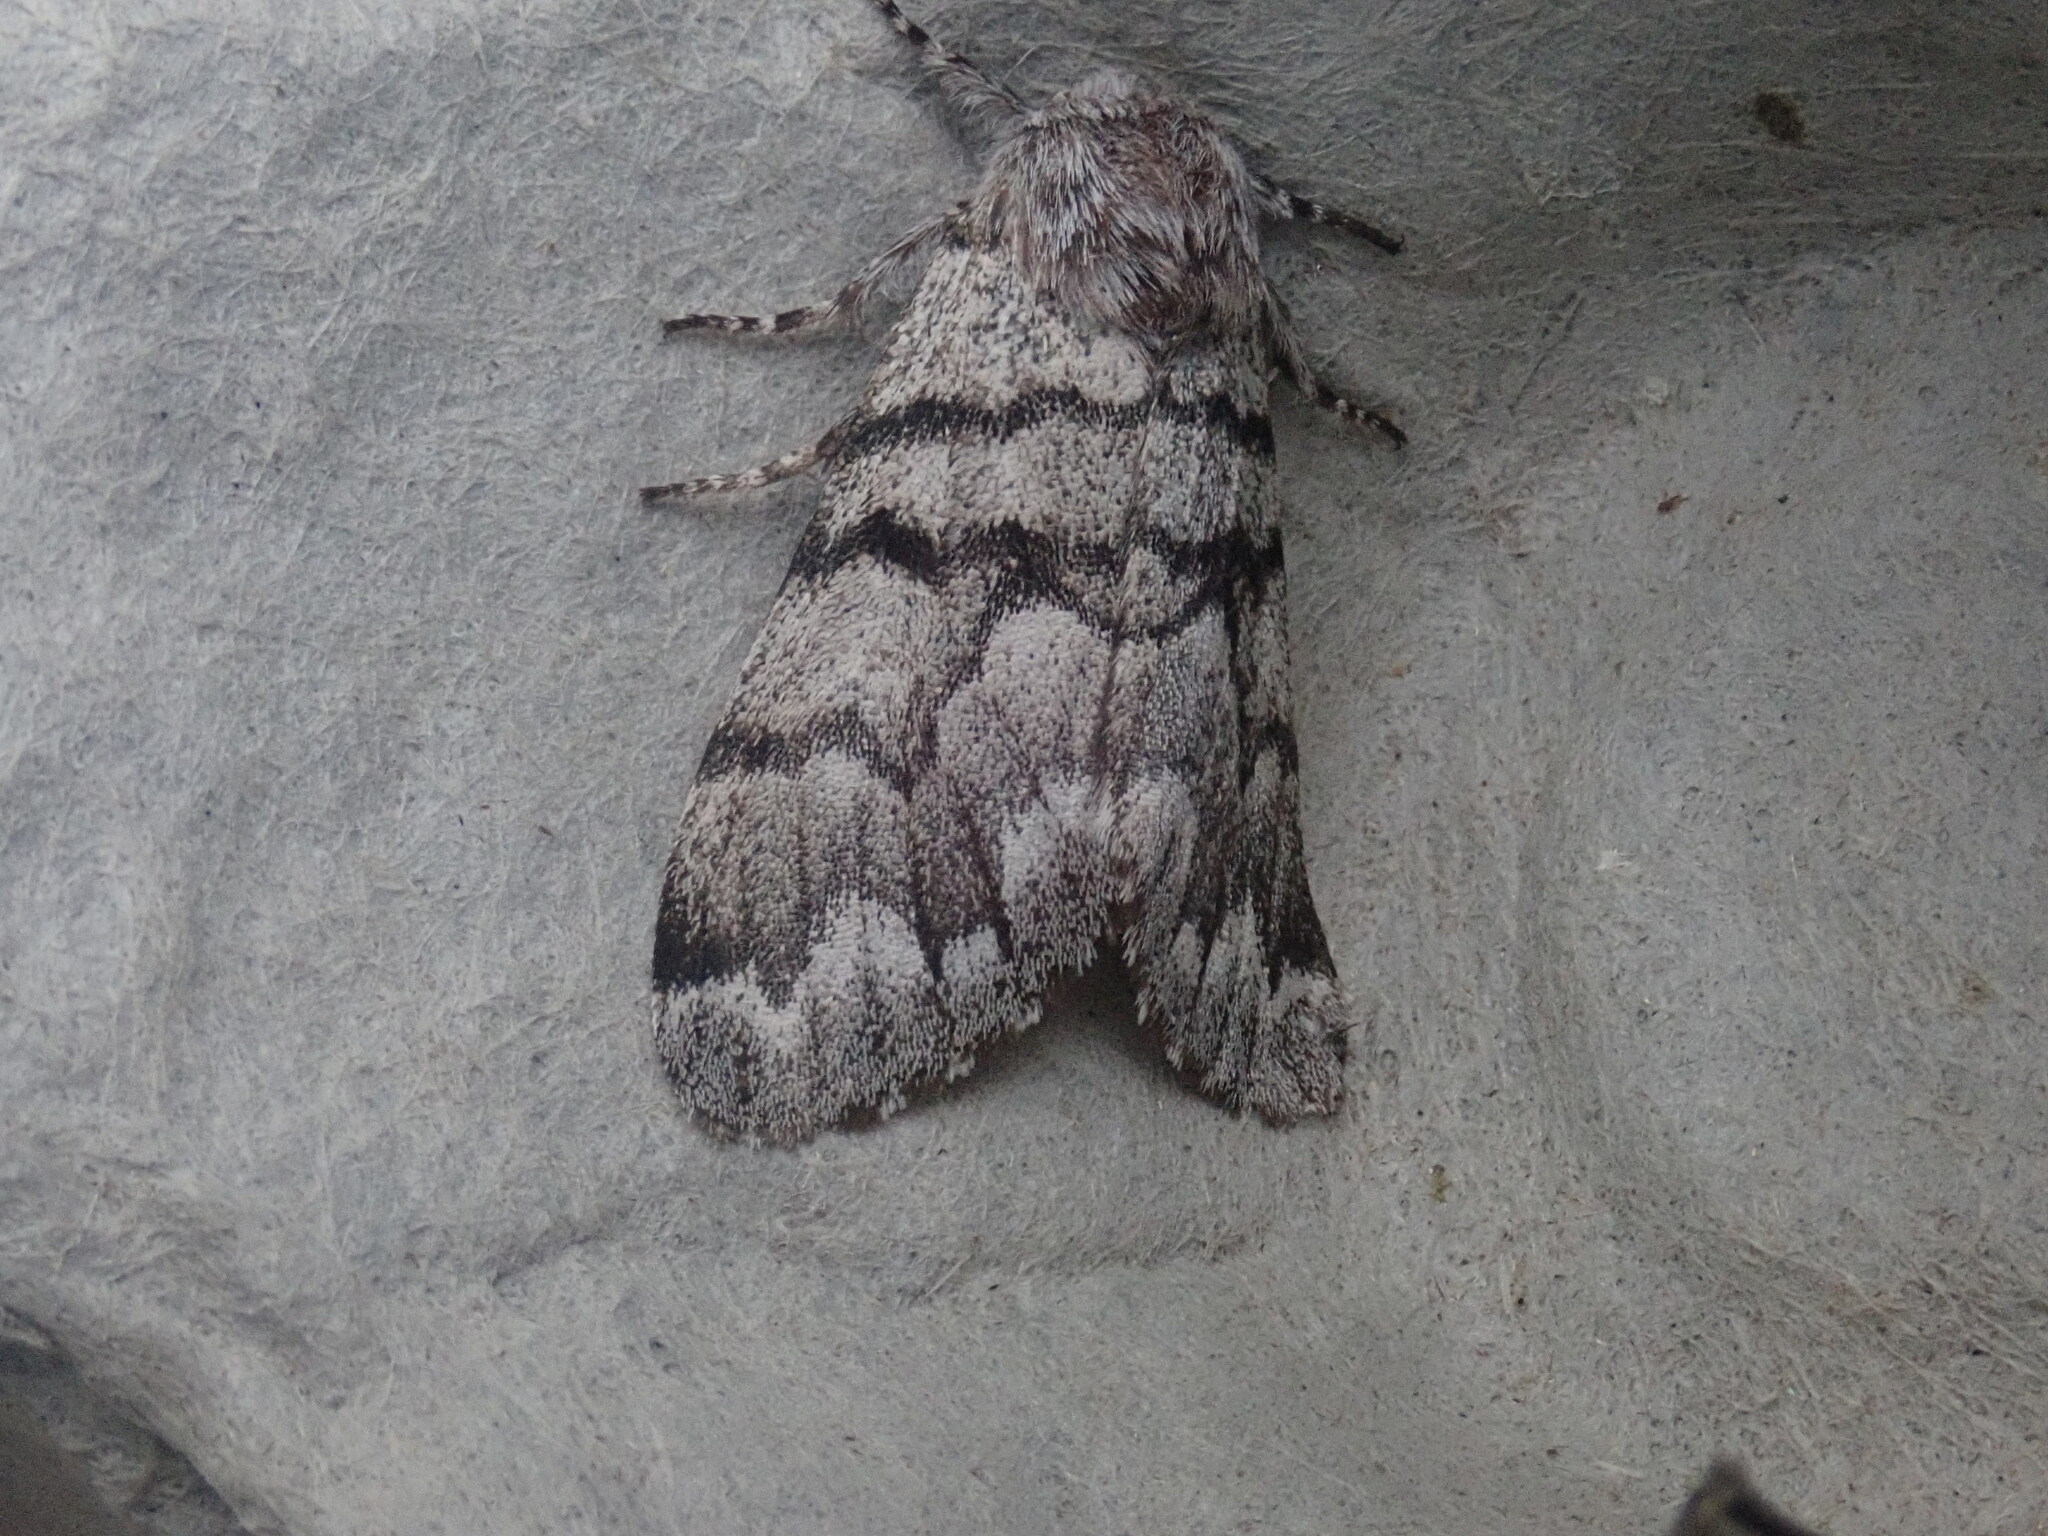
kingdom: Animalia
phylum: Arthropoda
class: Insecta
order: Lepidoptera
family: Noctuidae
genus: Panthea
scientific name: Panthea furcilla
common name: Eastern panthea moth
